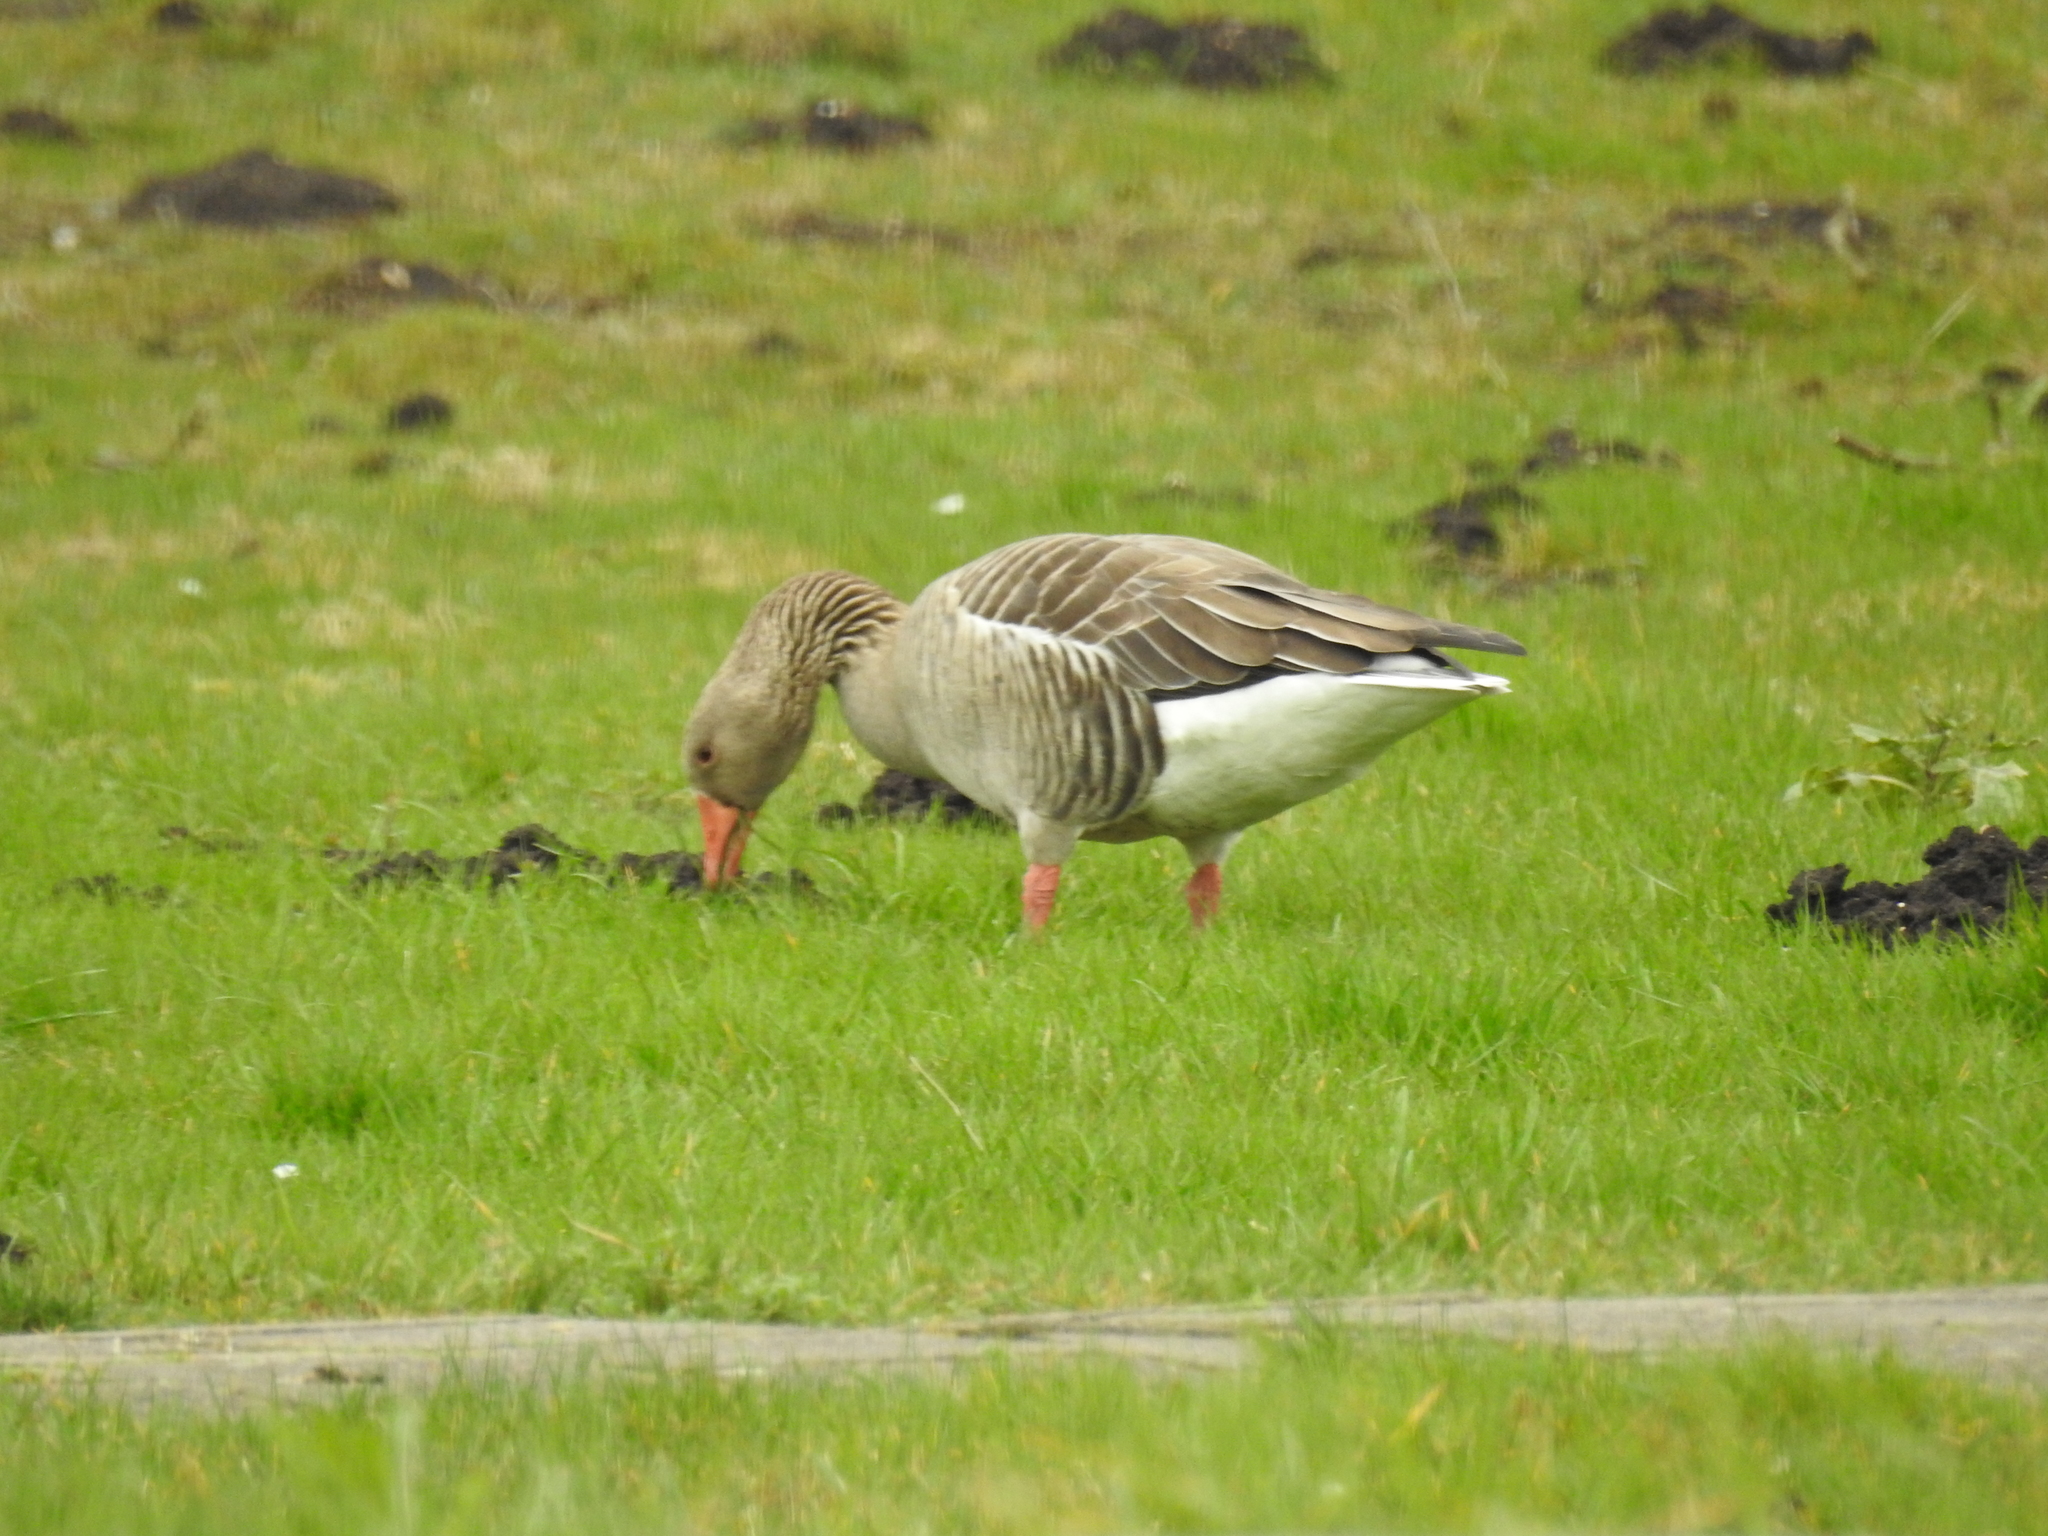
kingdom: Animalia
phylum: Chordata
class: Aves
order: Anseriformes
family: Anatidae
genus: Anser
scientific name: Anser anser
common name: Greylag goose
